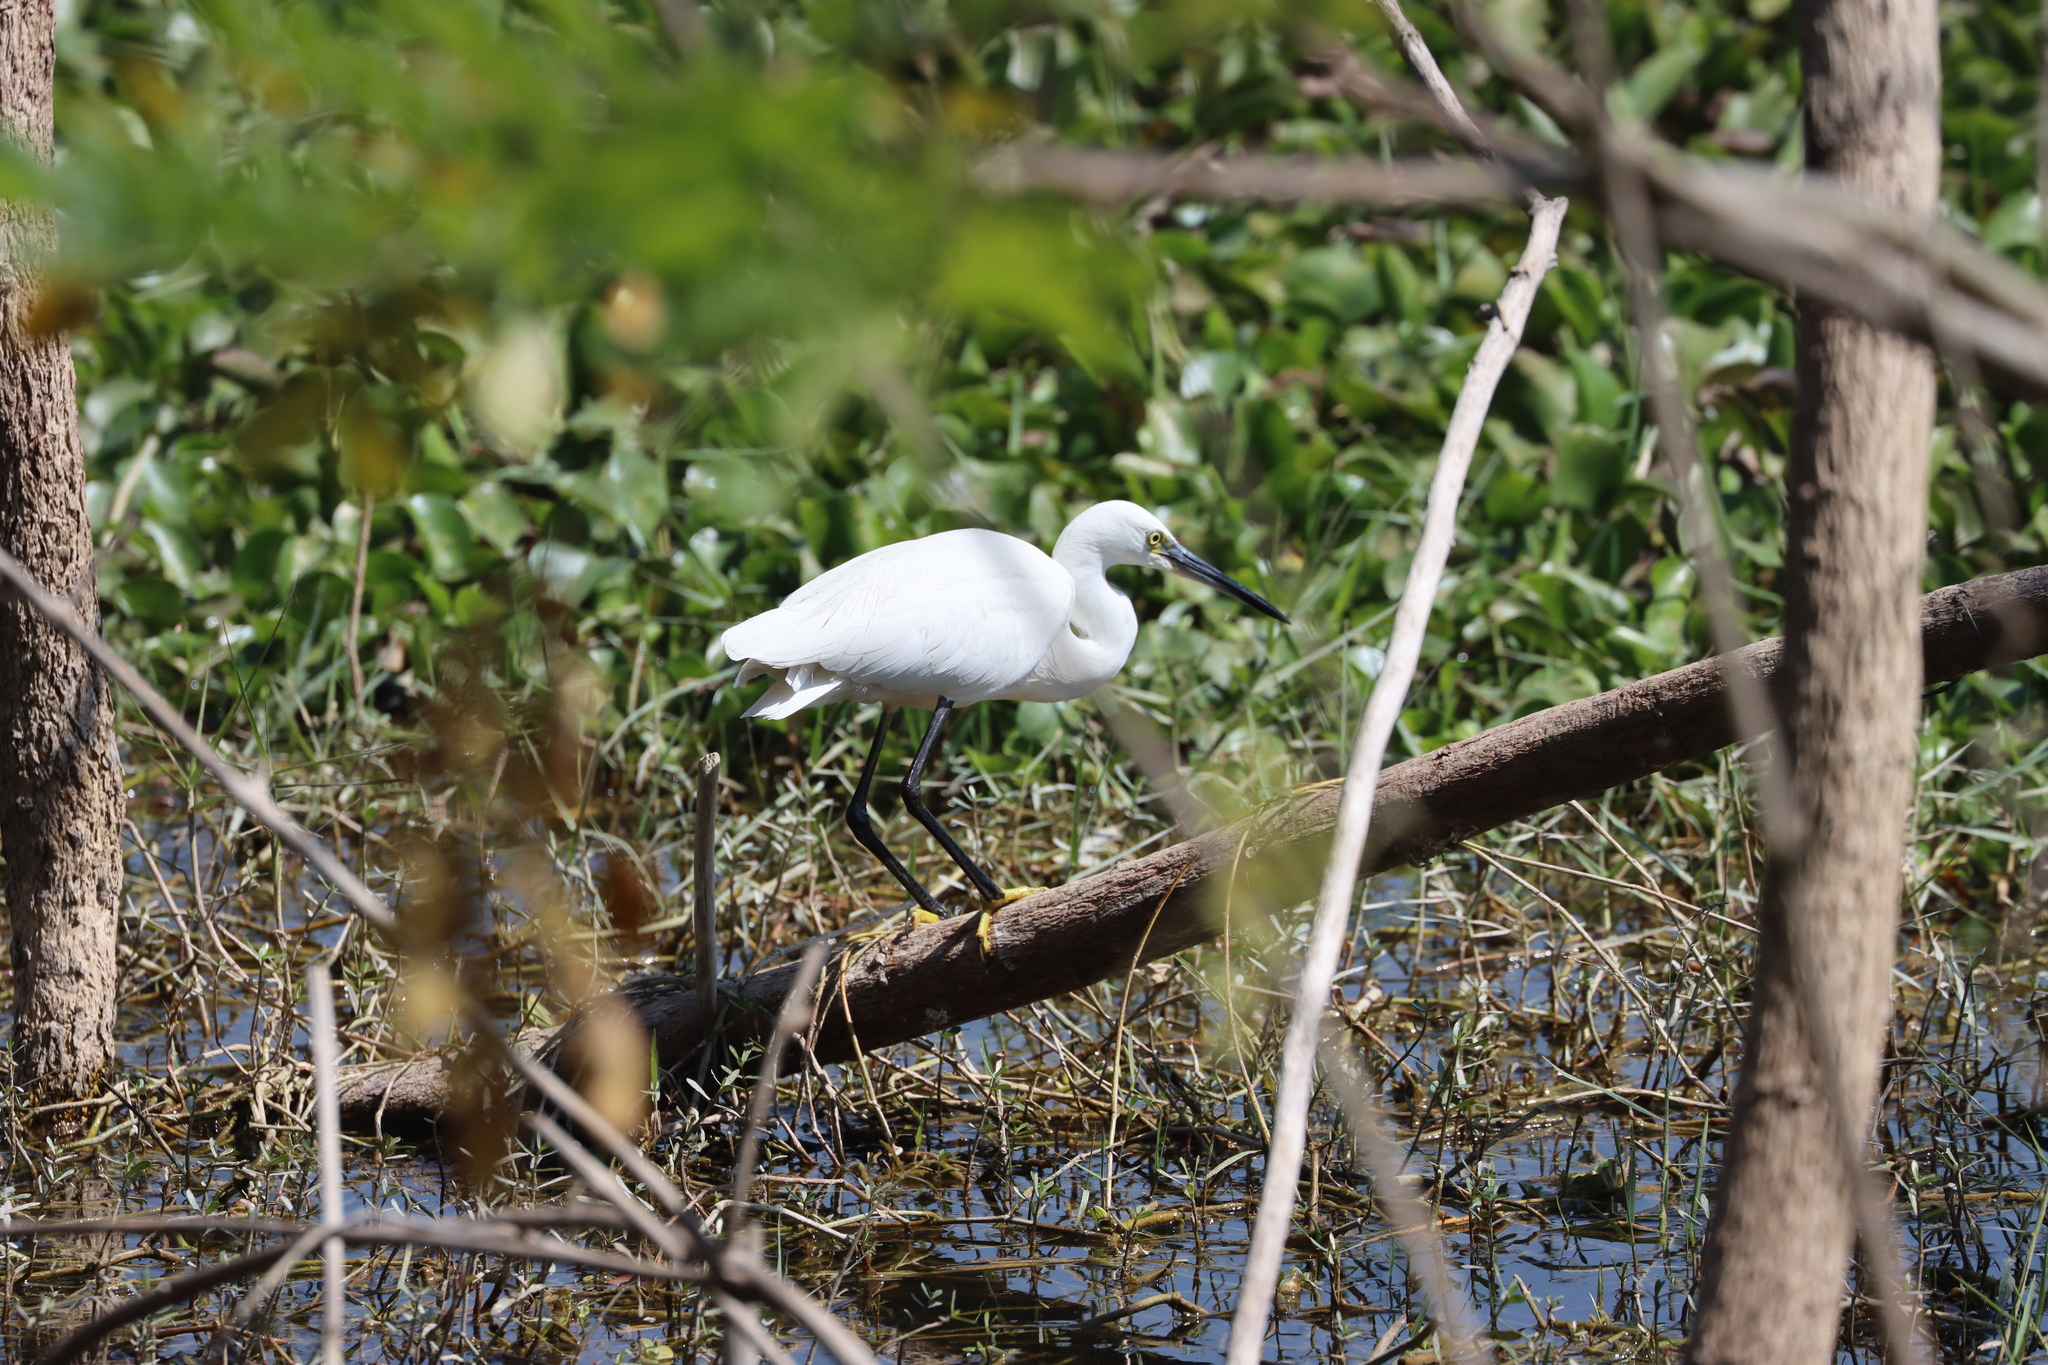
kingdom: Animalia
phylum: Chordata
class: Aves
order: Pelecaniformes
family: Ardeidae
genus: Egretta
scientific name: Egretta garzetta
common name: Little egret
